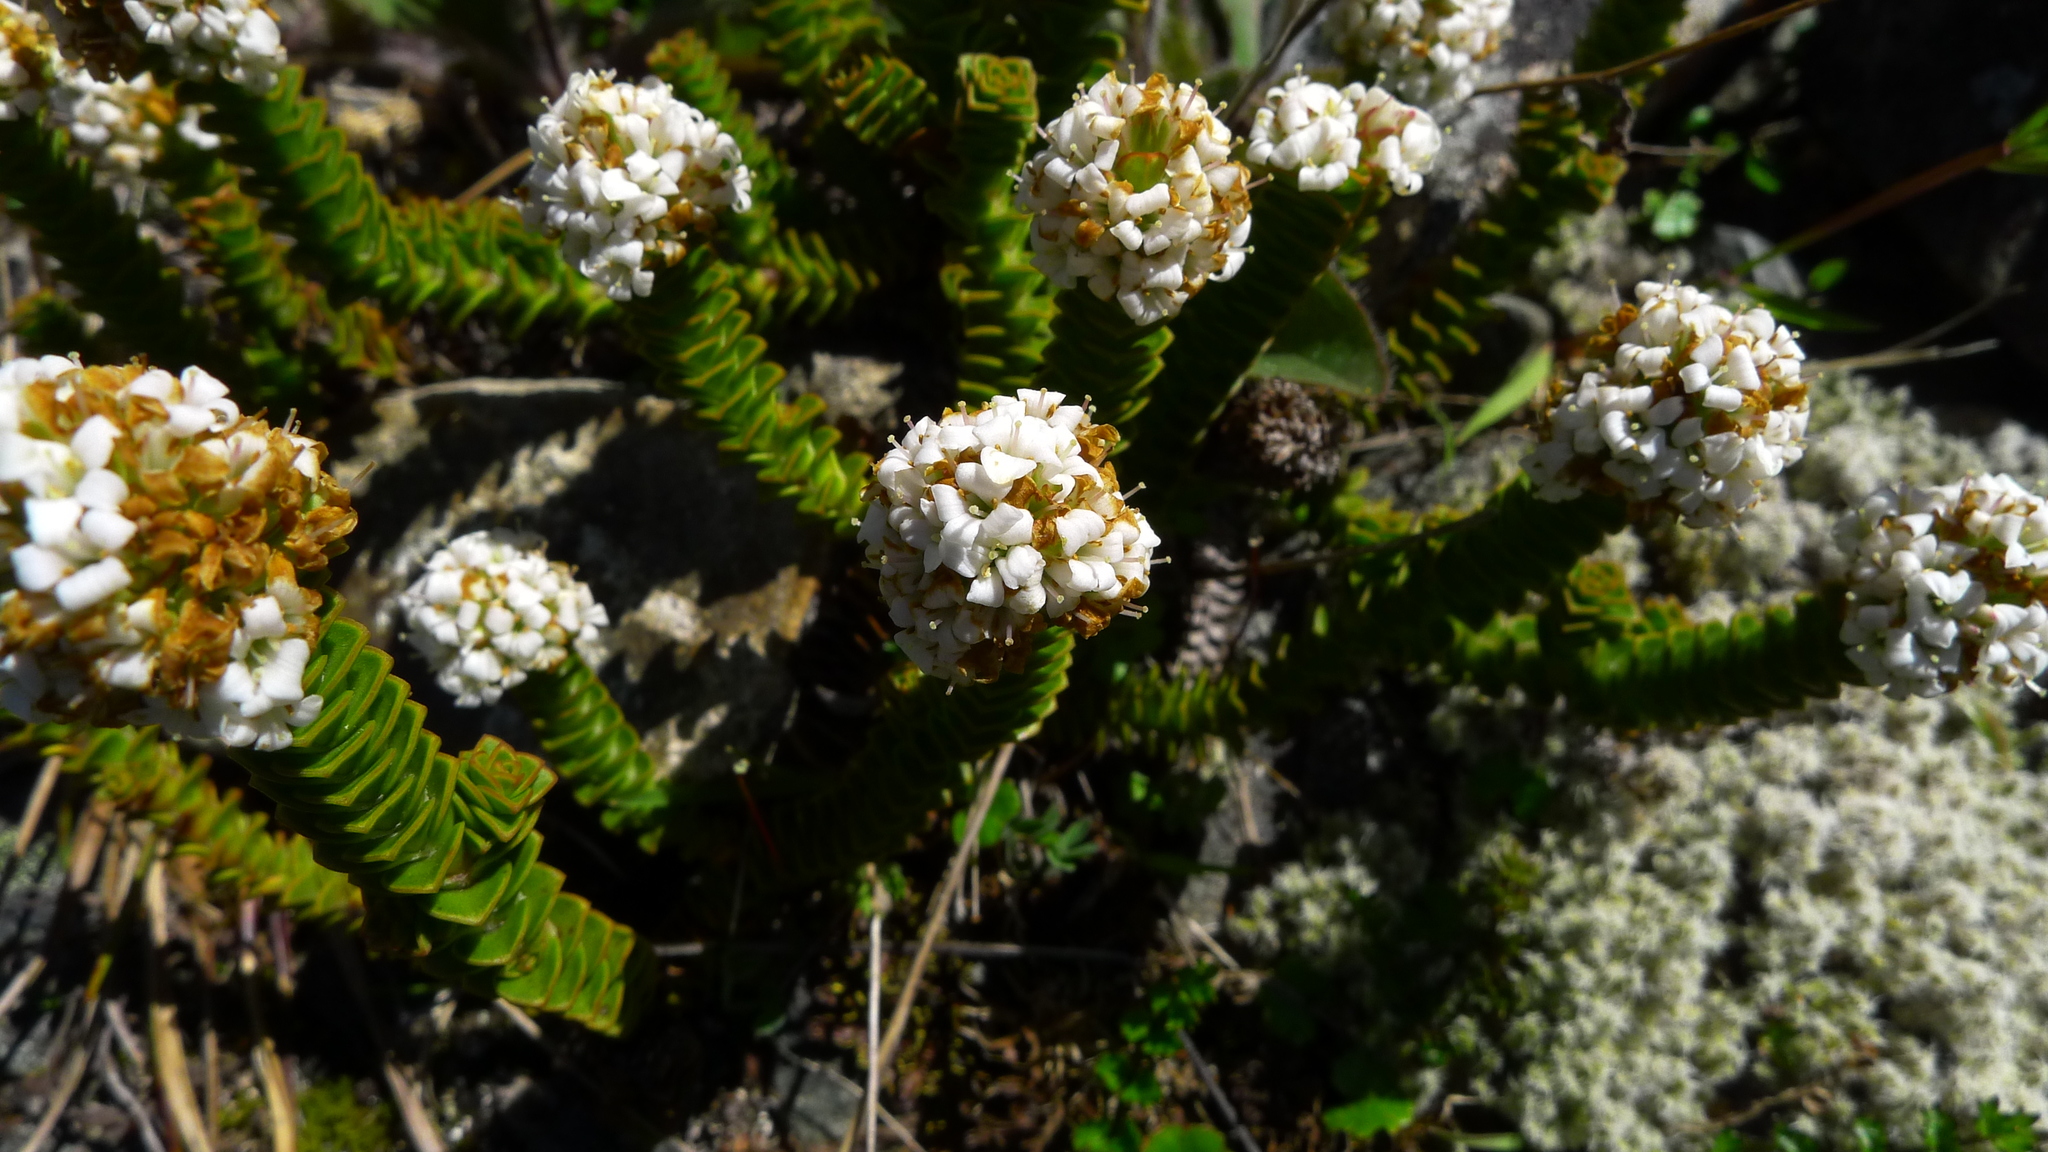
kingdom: Plantae
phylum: Tracheophyta
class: Magnoliopsida
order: Lamiales
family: Plantaginaceae
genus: Veronica
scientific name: Veronica epacridea
